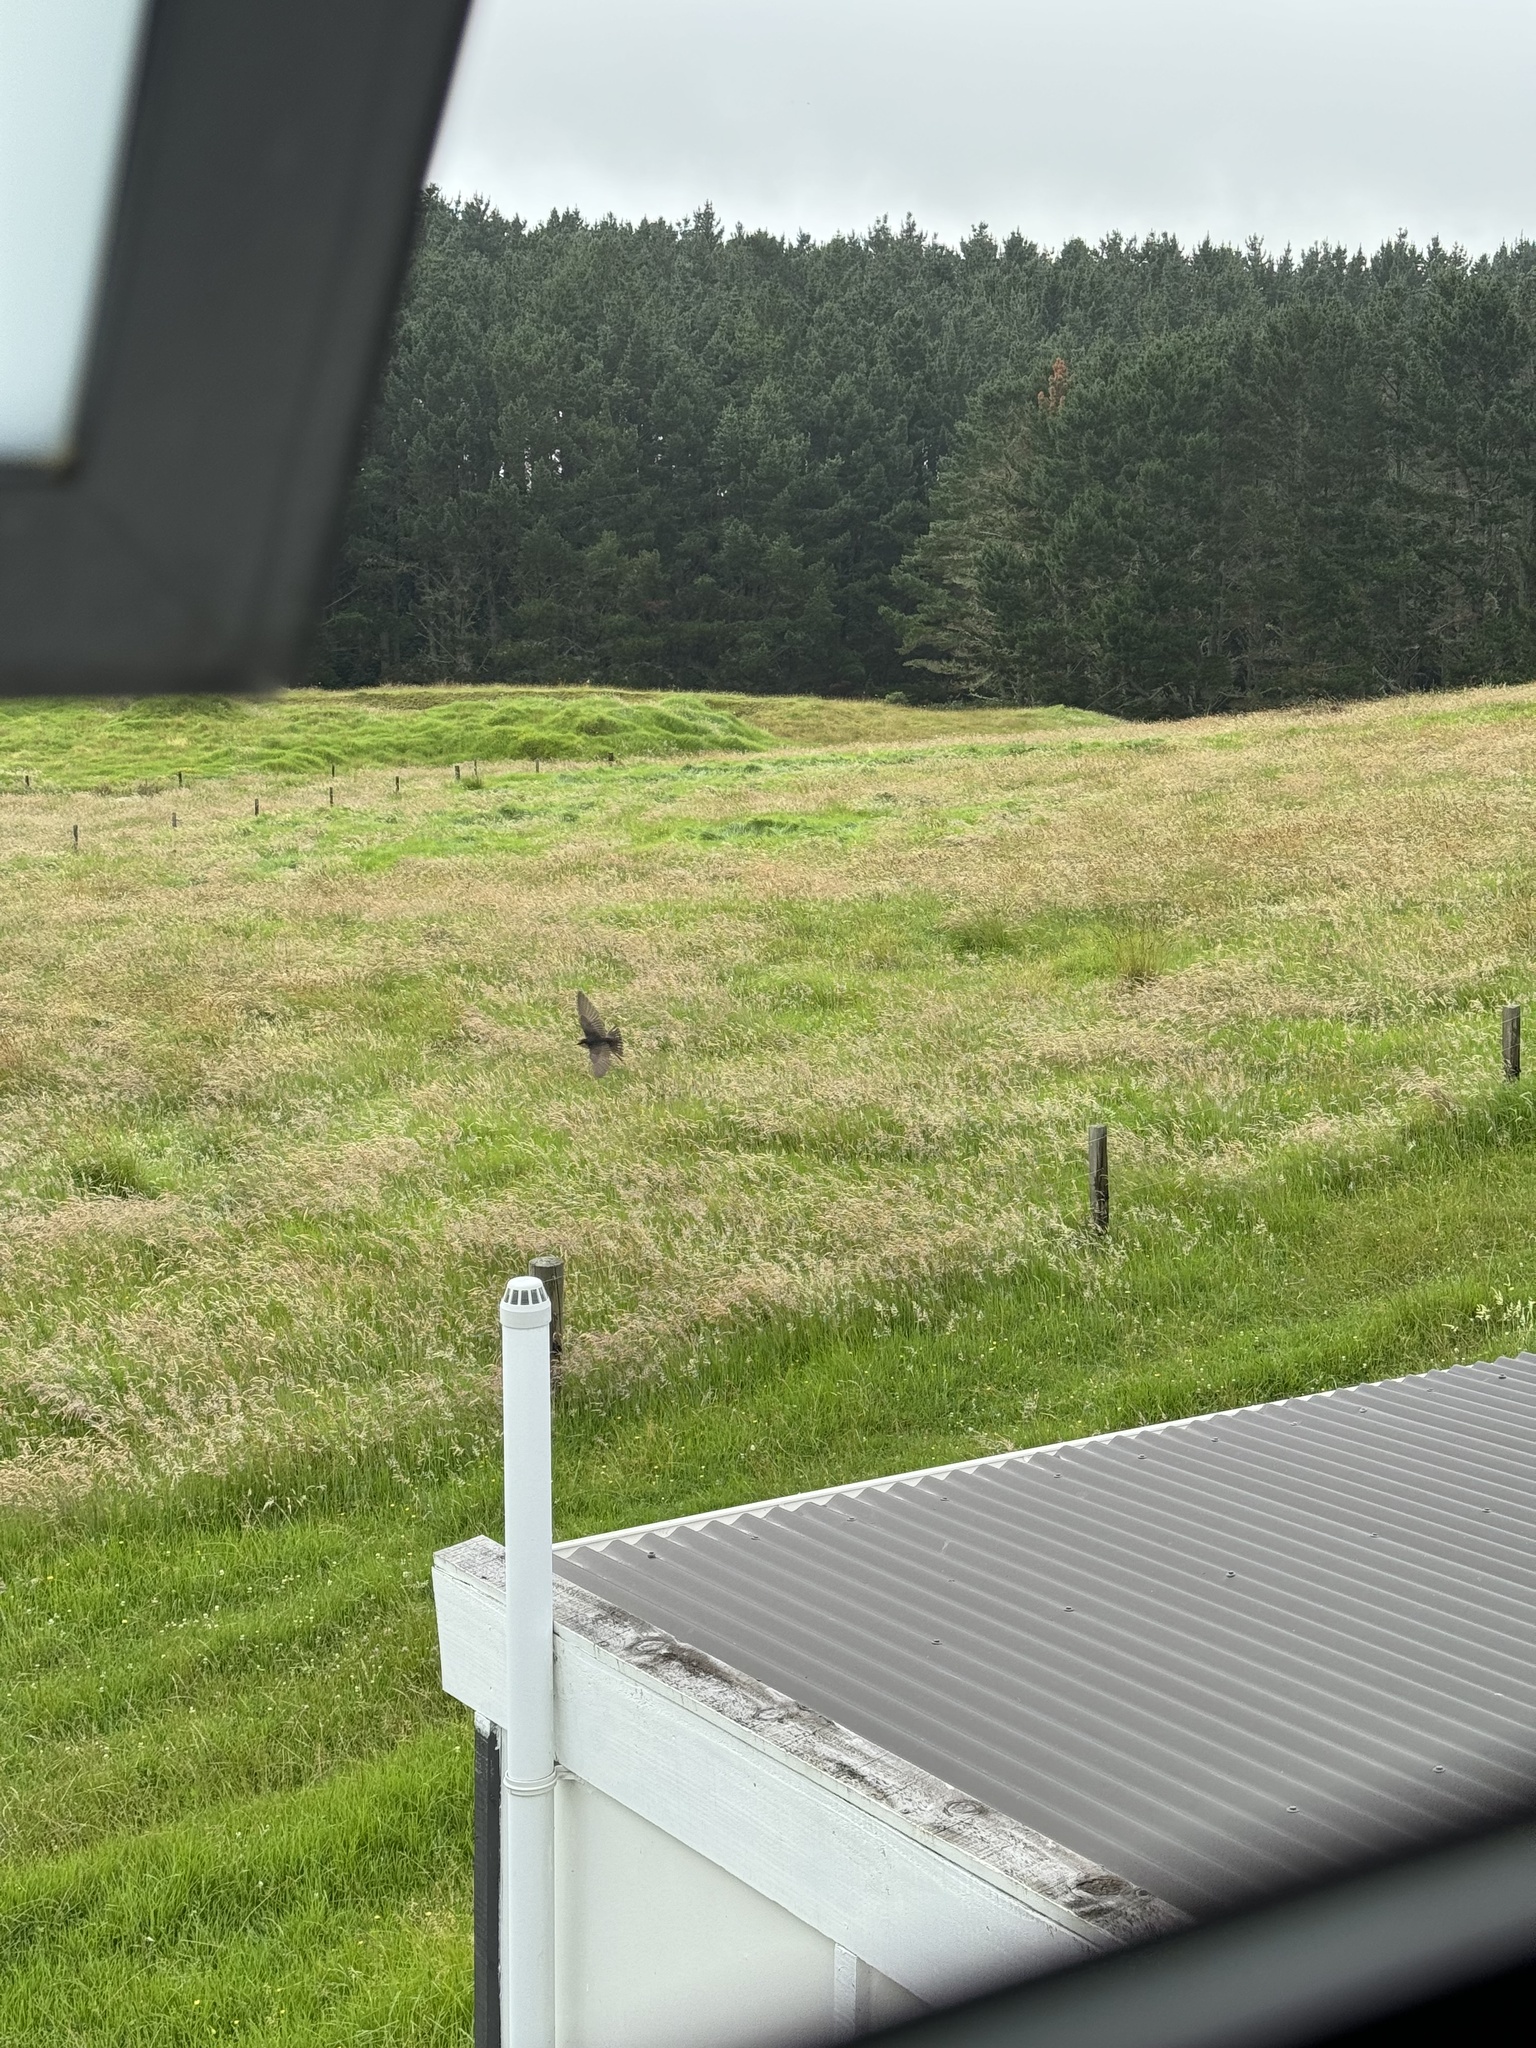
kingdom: Animalia
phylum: Chordata
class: Aves
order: Passeriformes
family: Hirundinidae
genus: Hirundo
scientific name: Hirundo neoxena
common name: Welcome swallow
